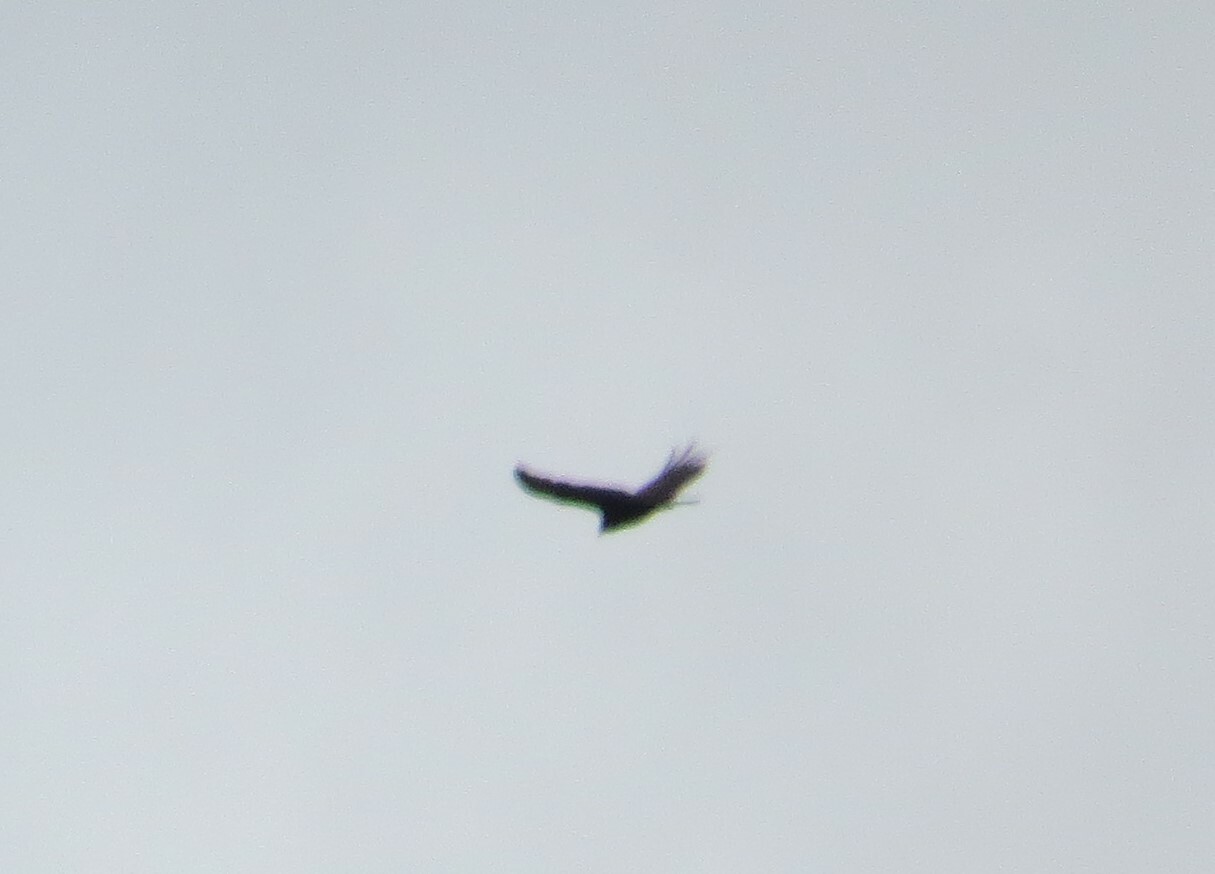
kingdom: Animalia
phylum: Chordata
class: Aves
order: Accipitriformes
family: Cathartidae
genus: Cathartes
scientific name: Cathartes aura
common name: Turkey vulture
